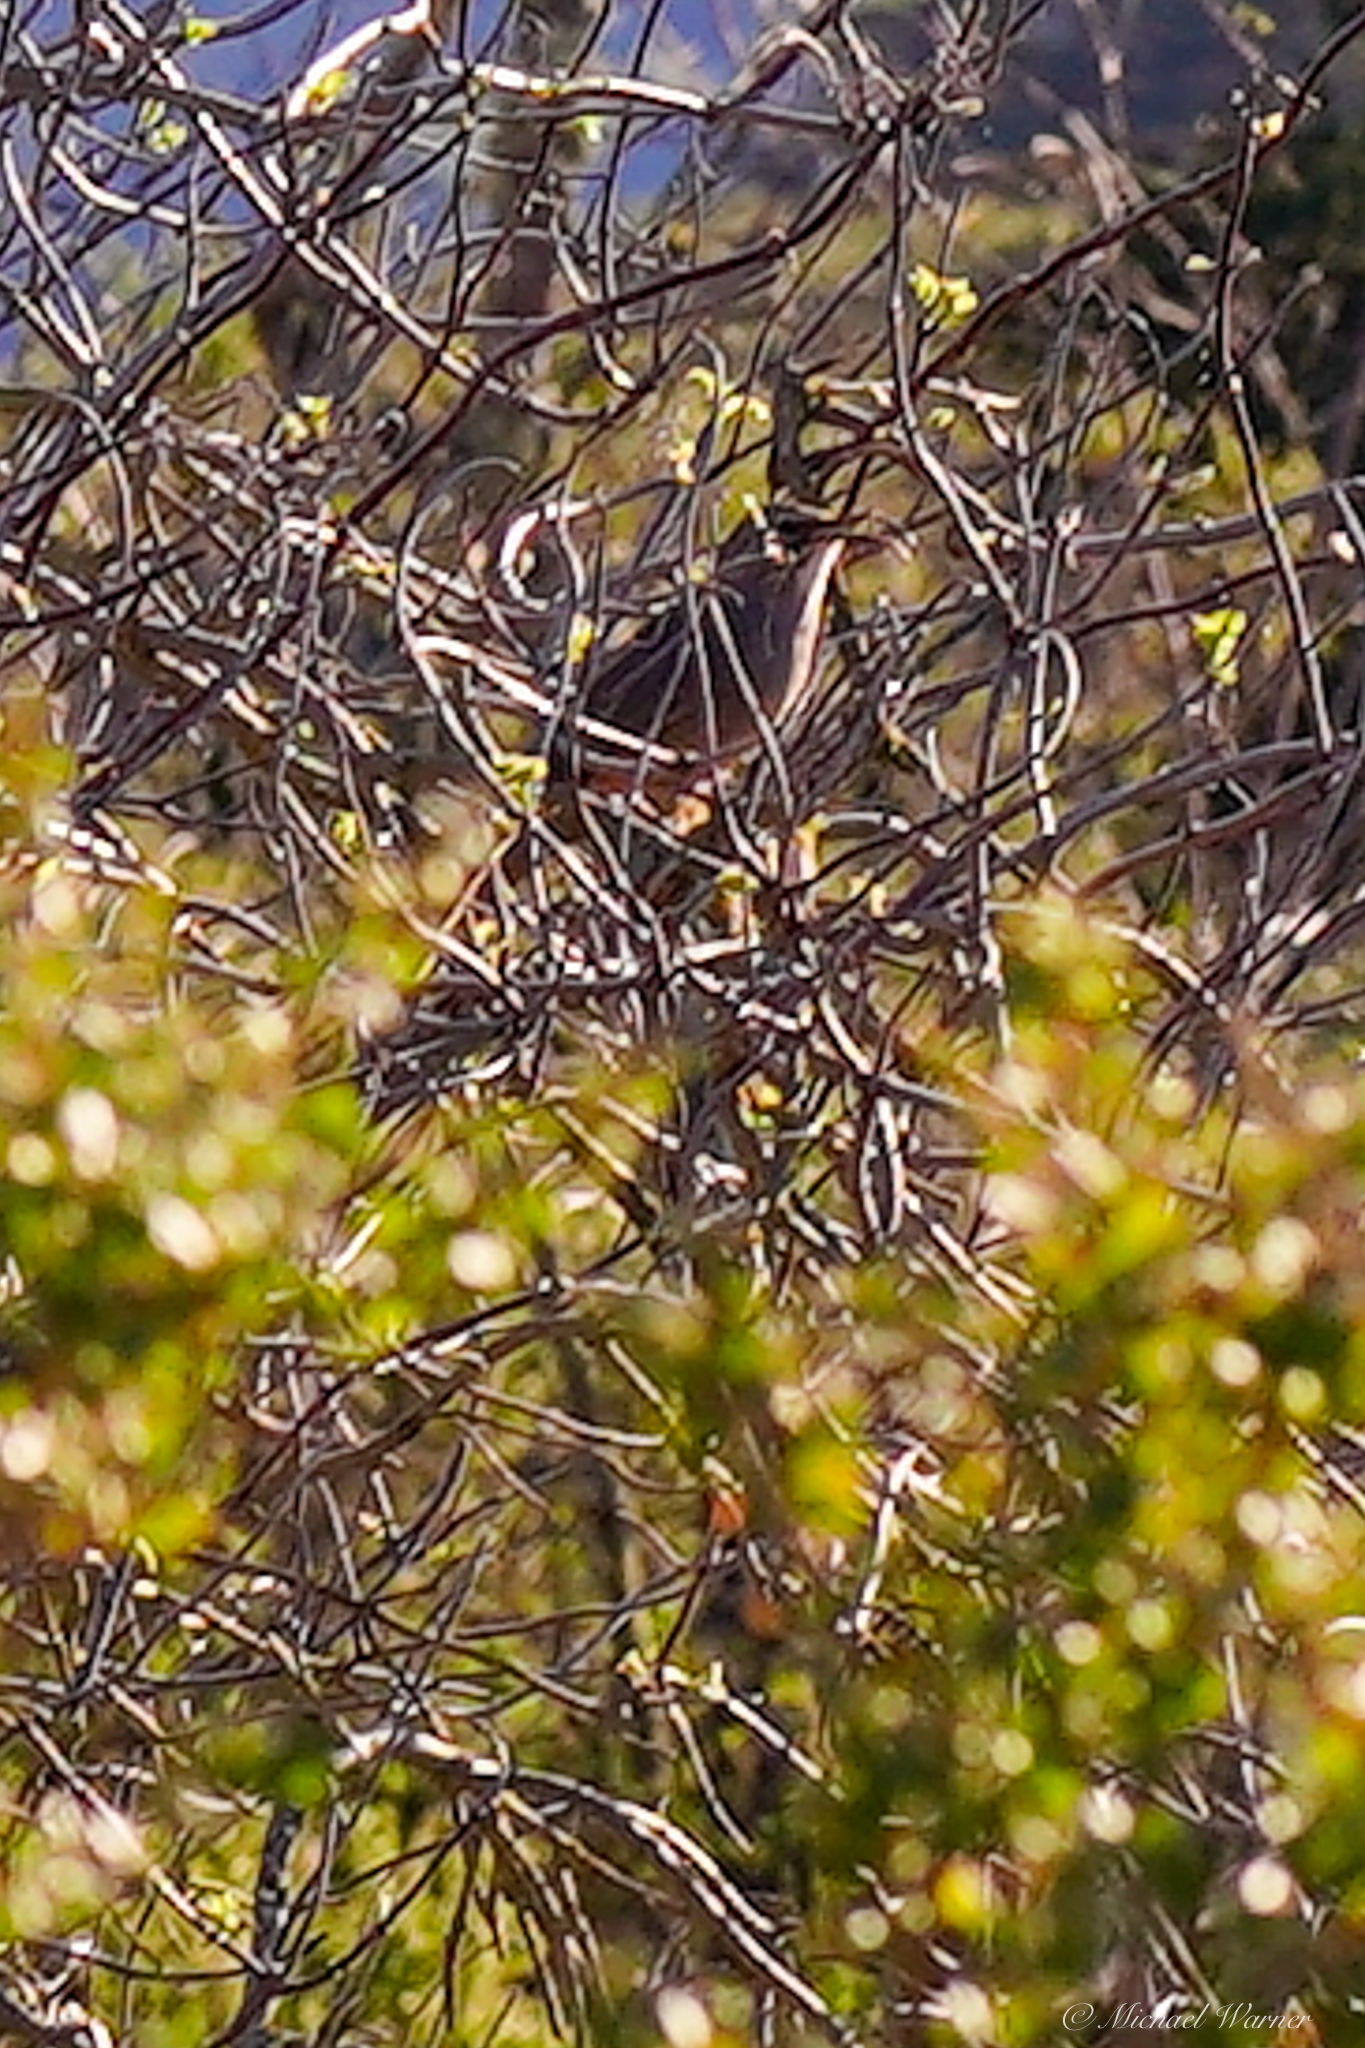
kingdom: Animalia
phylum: Chordata
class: Aves
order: Passeriformes
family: Mimidae
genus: Toxostoma
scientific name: Toxostoma redivivum
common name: California thrasher
